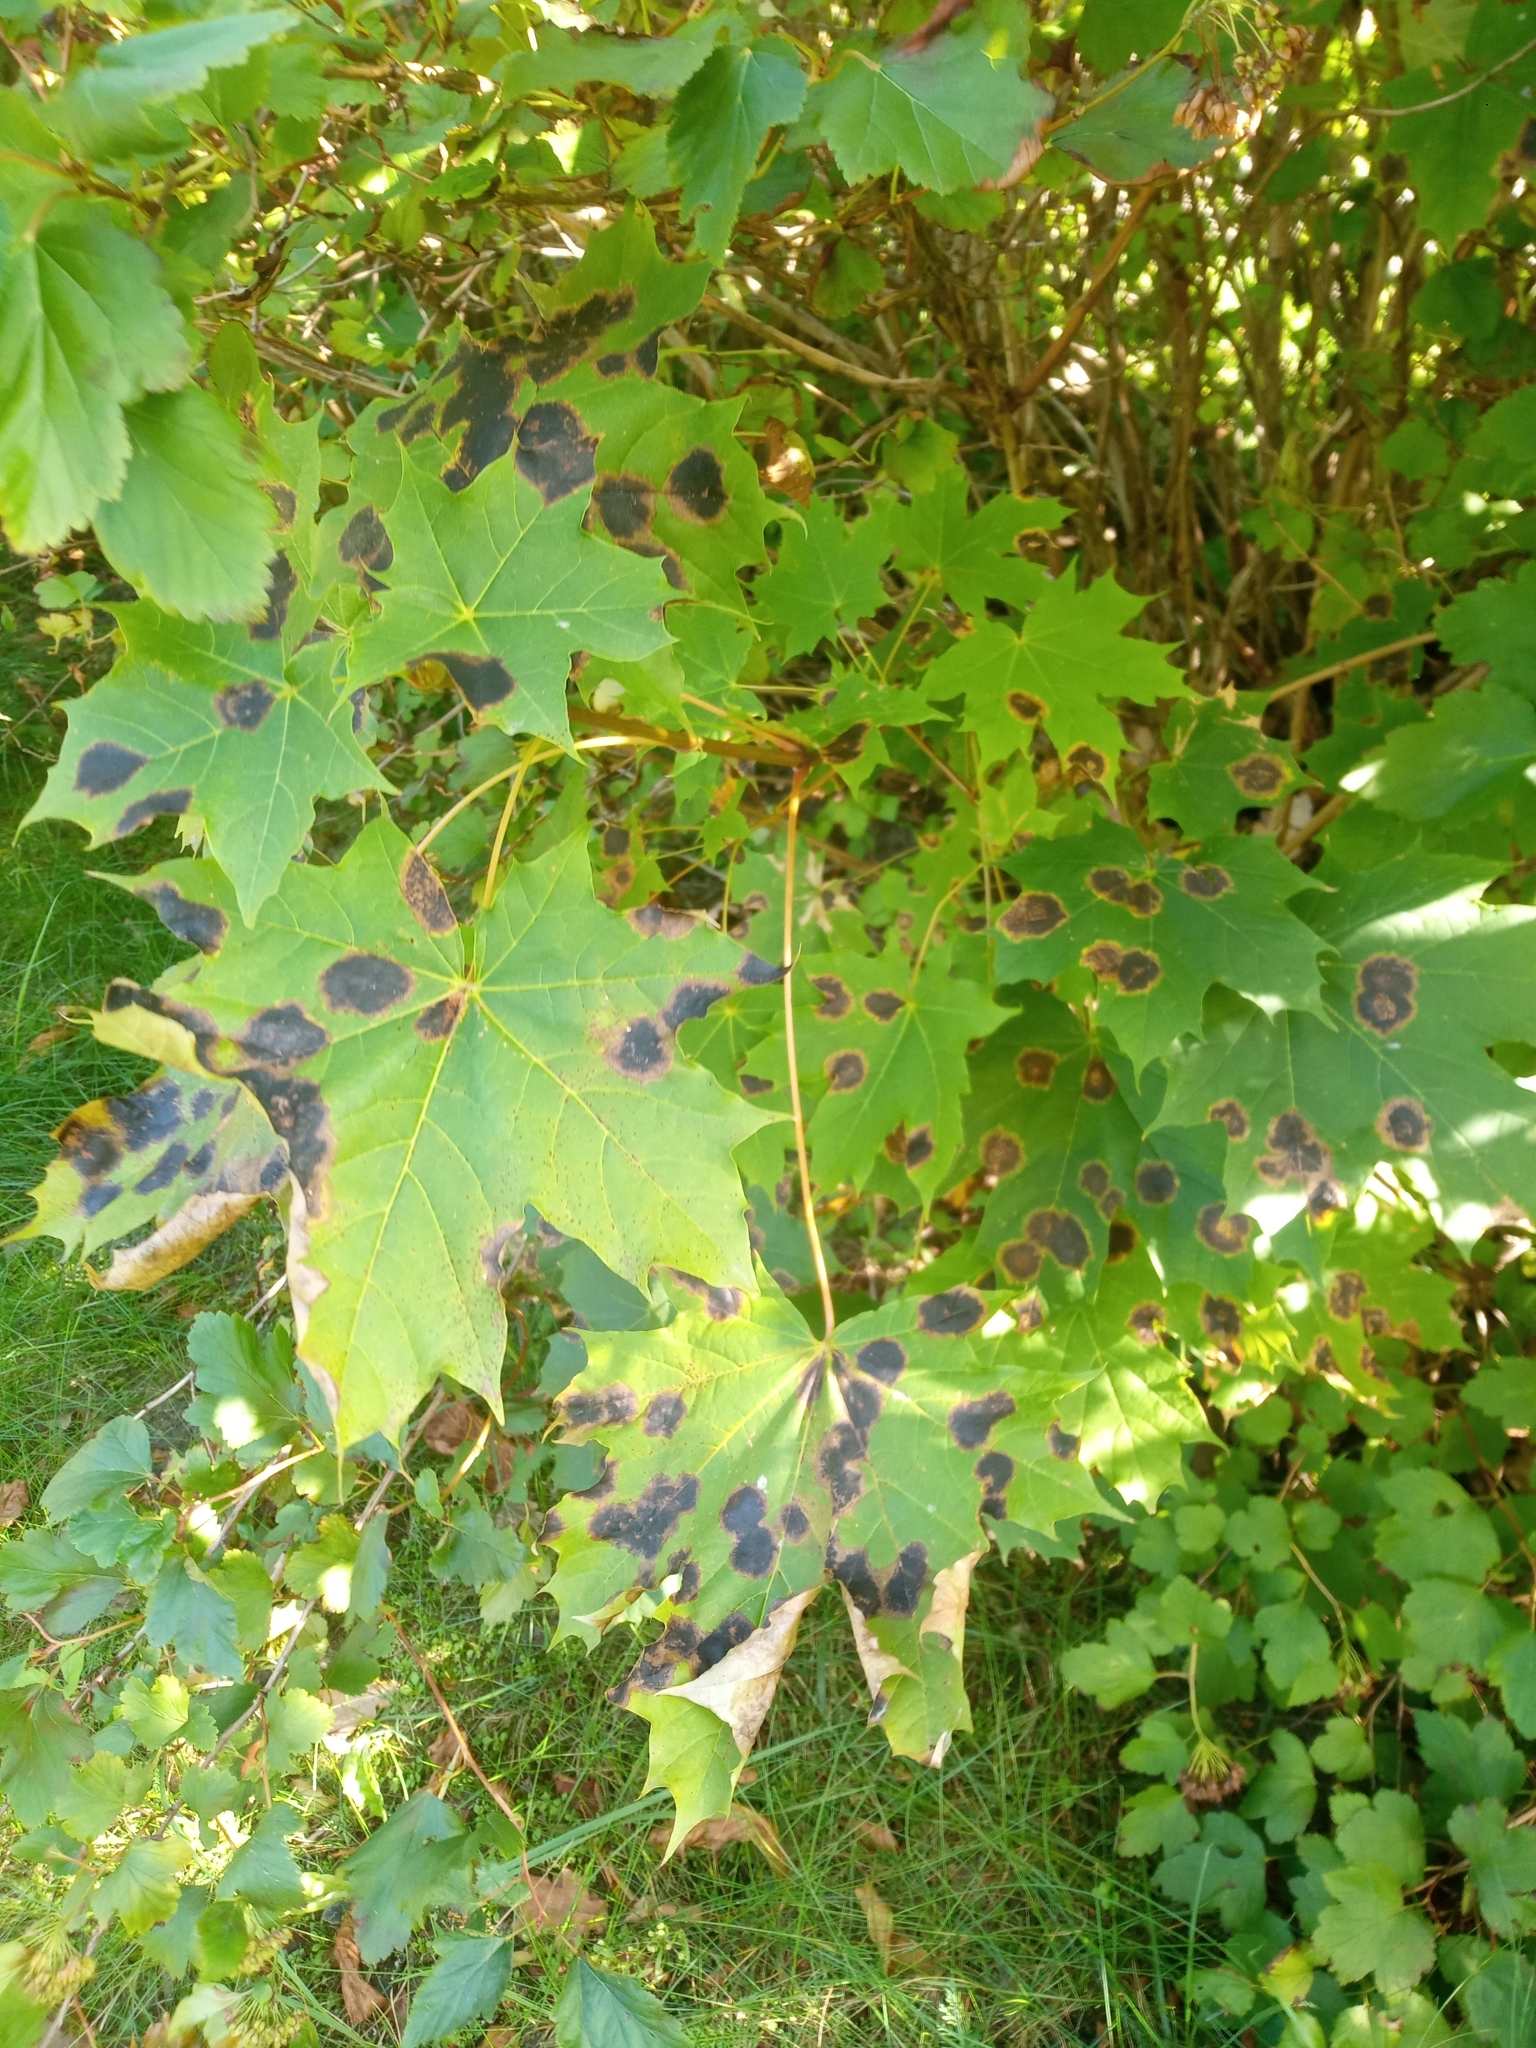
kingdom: Fungi
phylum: Ascomycota
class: Leotiomycetes
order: Rhytismatales
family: Rhytismataceae
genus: Rhytisma
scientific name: Rhytisma acerinum
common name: European tar spot
